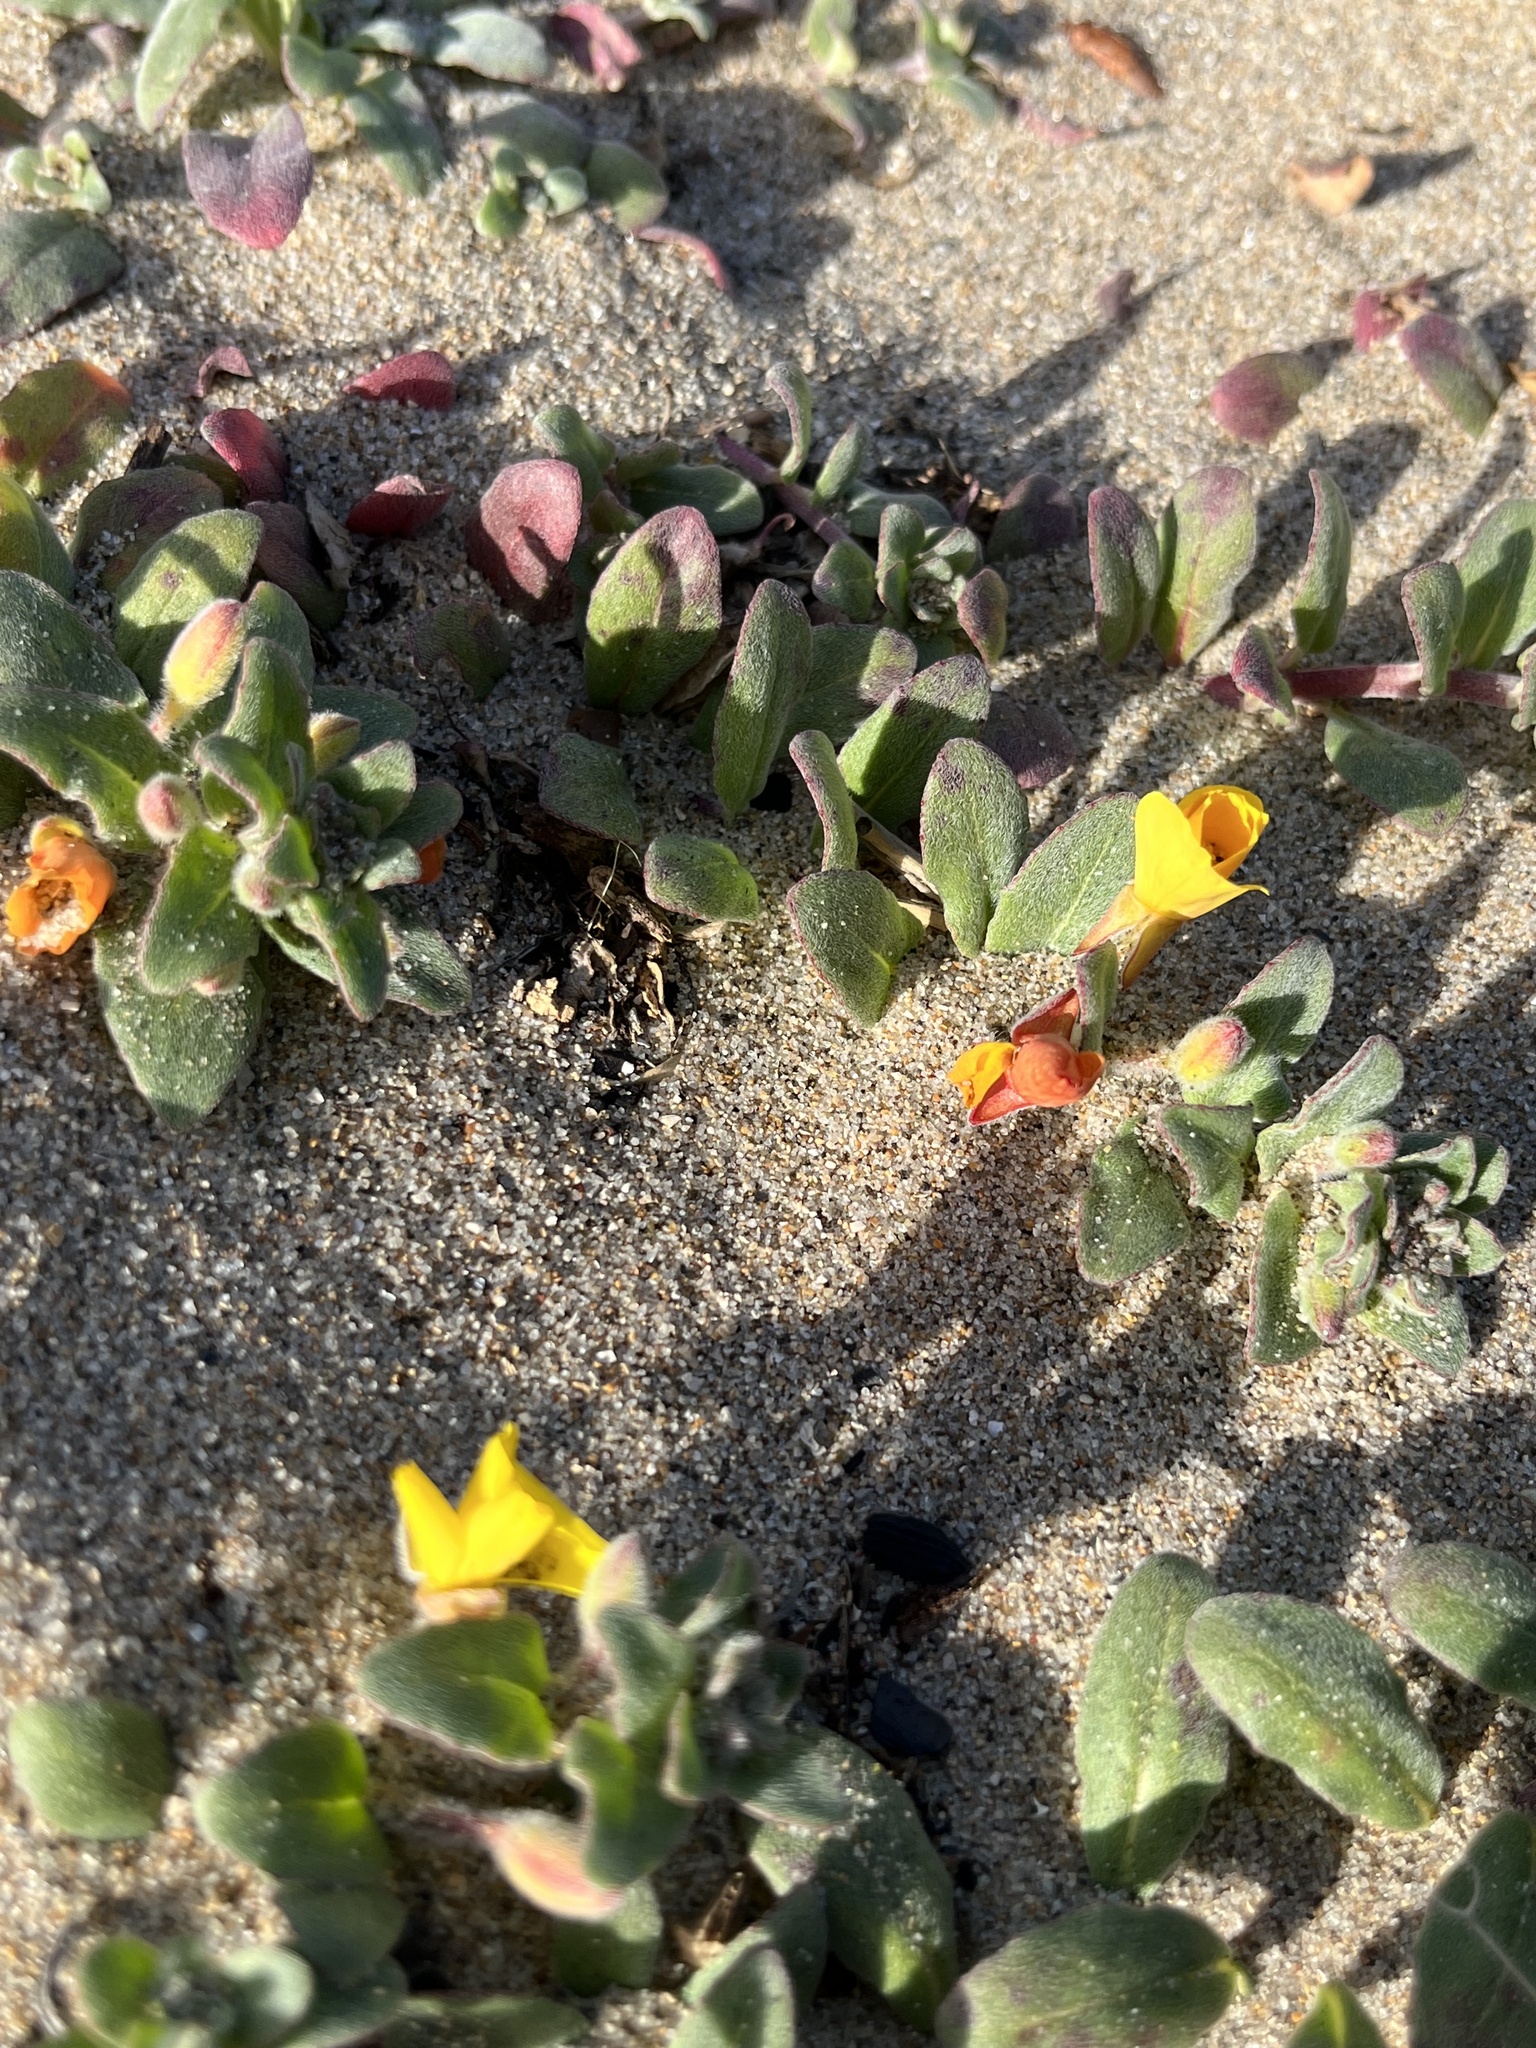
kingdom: Plantae
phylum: Tracheophyta
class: Magnoliopsida
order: Myrtales
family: Onagraceae
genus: Camissoniopsis
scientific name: Camissoniopsis cheiranthifolia
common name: Beach suncup
